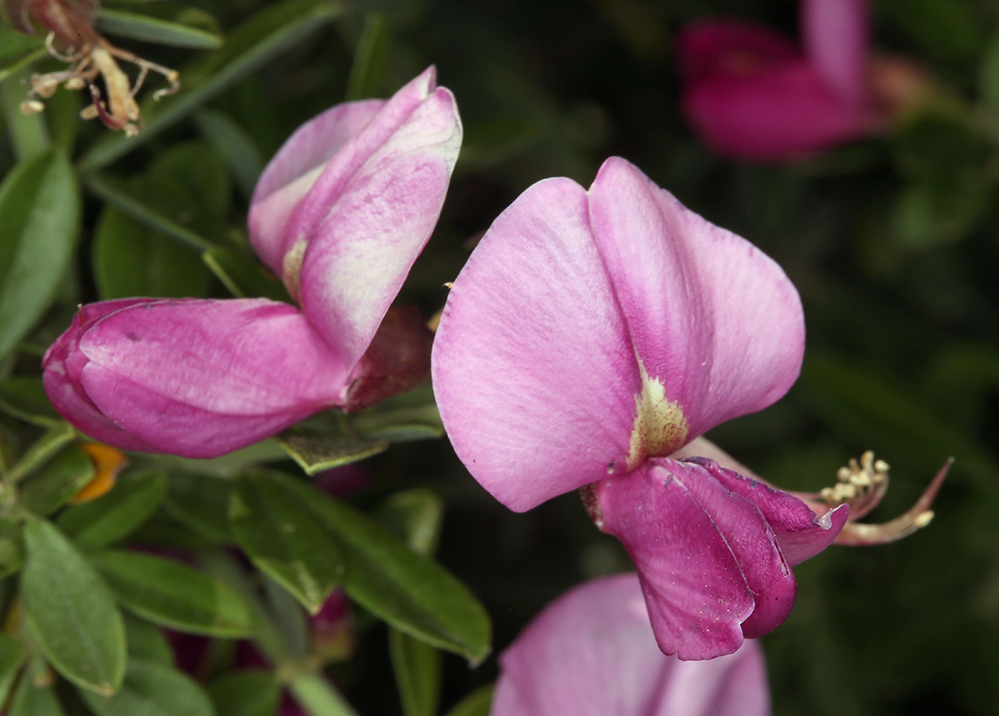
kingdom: Plantae
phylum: Tracheophyta
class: Magnoliopsida
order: Fabales
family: Fabaceae
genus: Pickeringia
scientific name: Pickeringia montana
